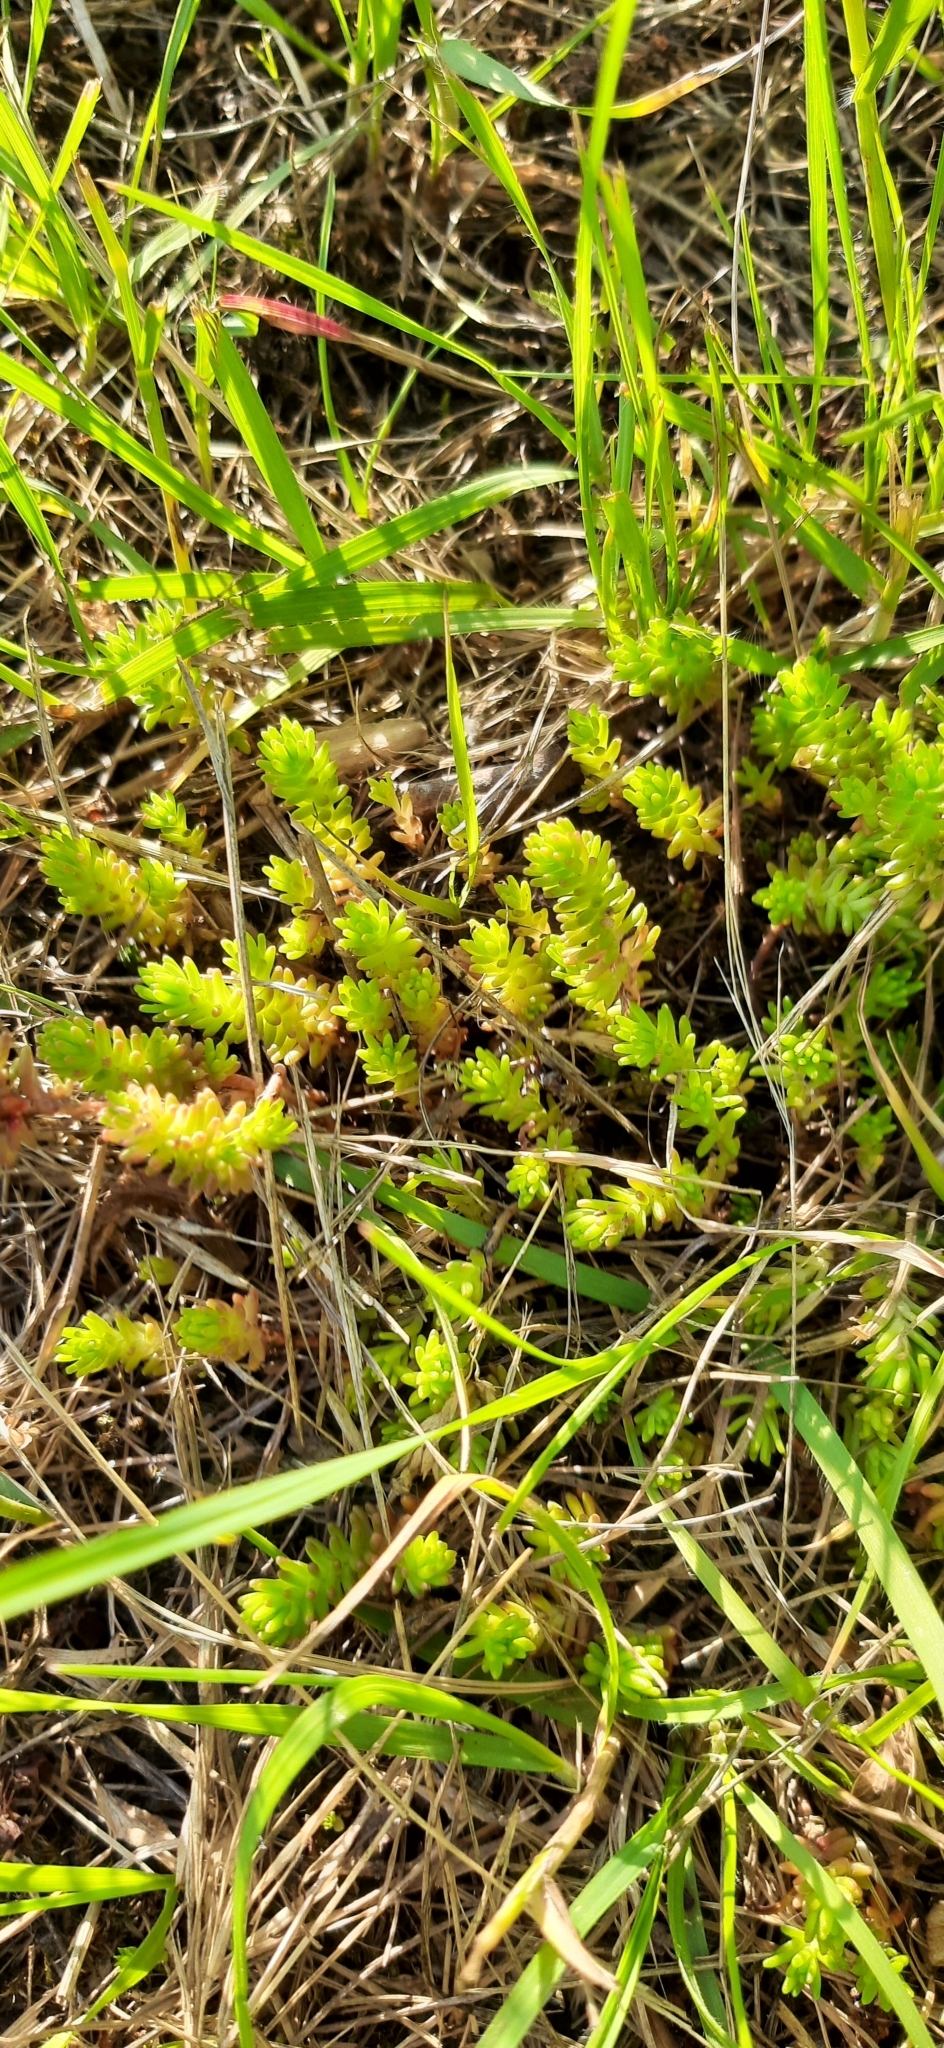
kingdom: Plantae
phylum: Tracheophyta
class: Magnoliopsida
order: Saxifragales
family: Crassulaceae
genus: Sedum
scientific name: Sedum sexangulare
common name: Tasteless stonecrop
